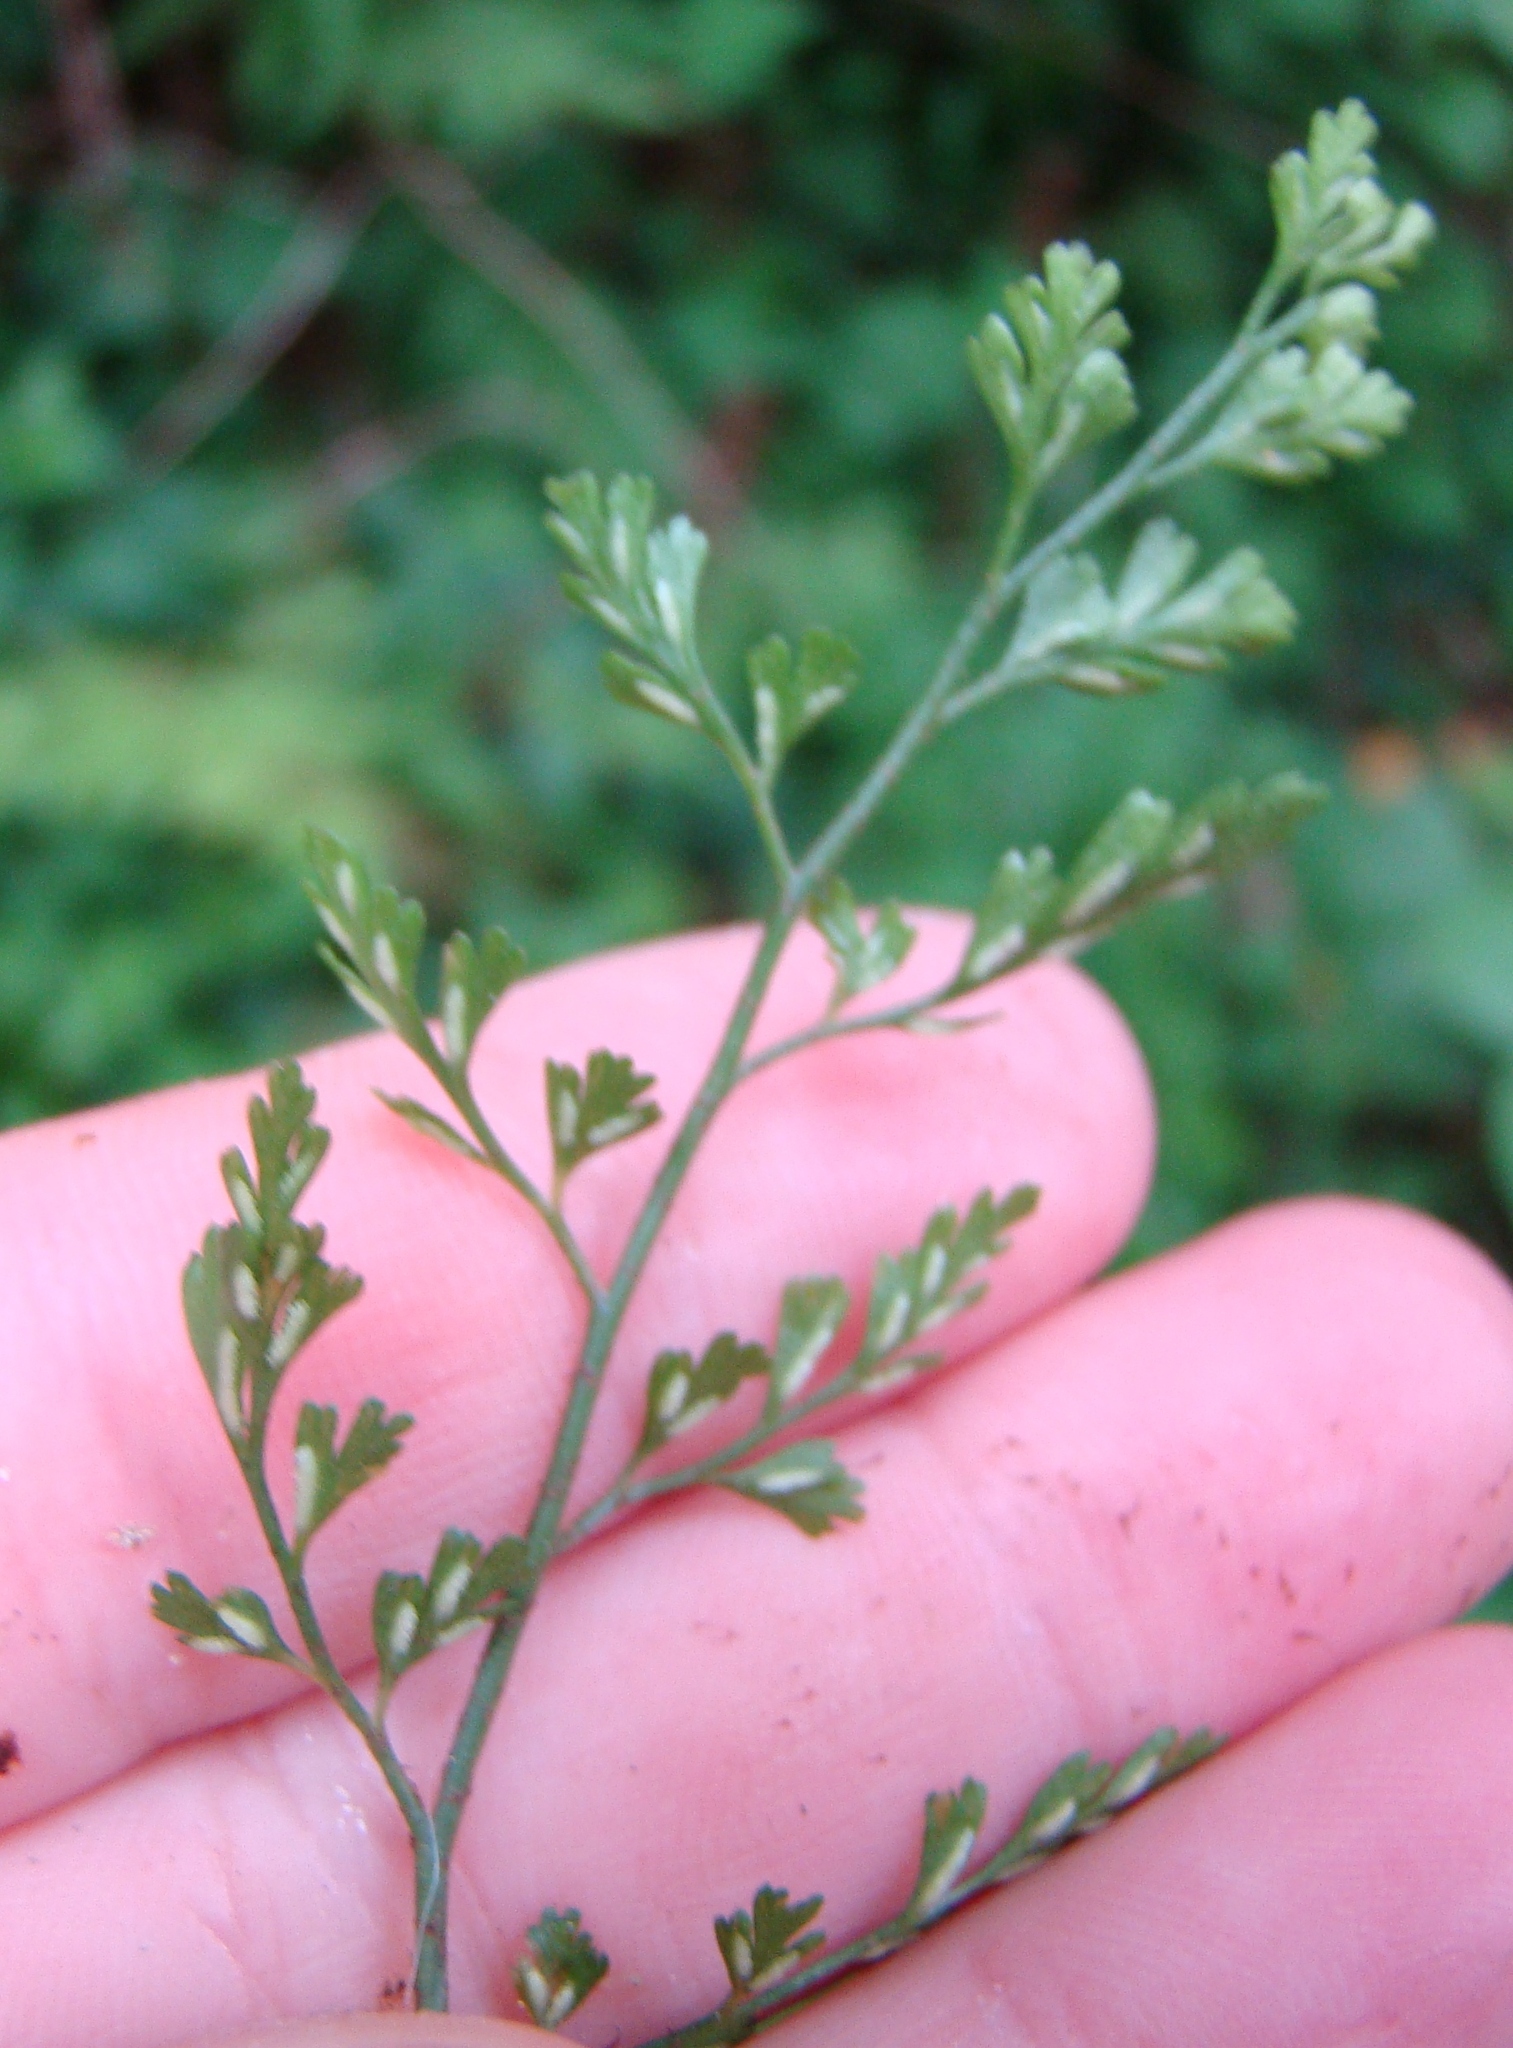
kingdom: Plantae
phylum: Tracheophyta
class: Polypodiopsida
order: Polypodiales
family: Aspleniaceae
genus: Asplenium
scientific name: Asplenium hookerianum
